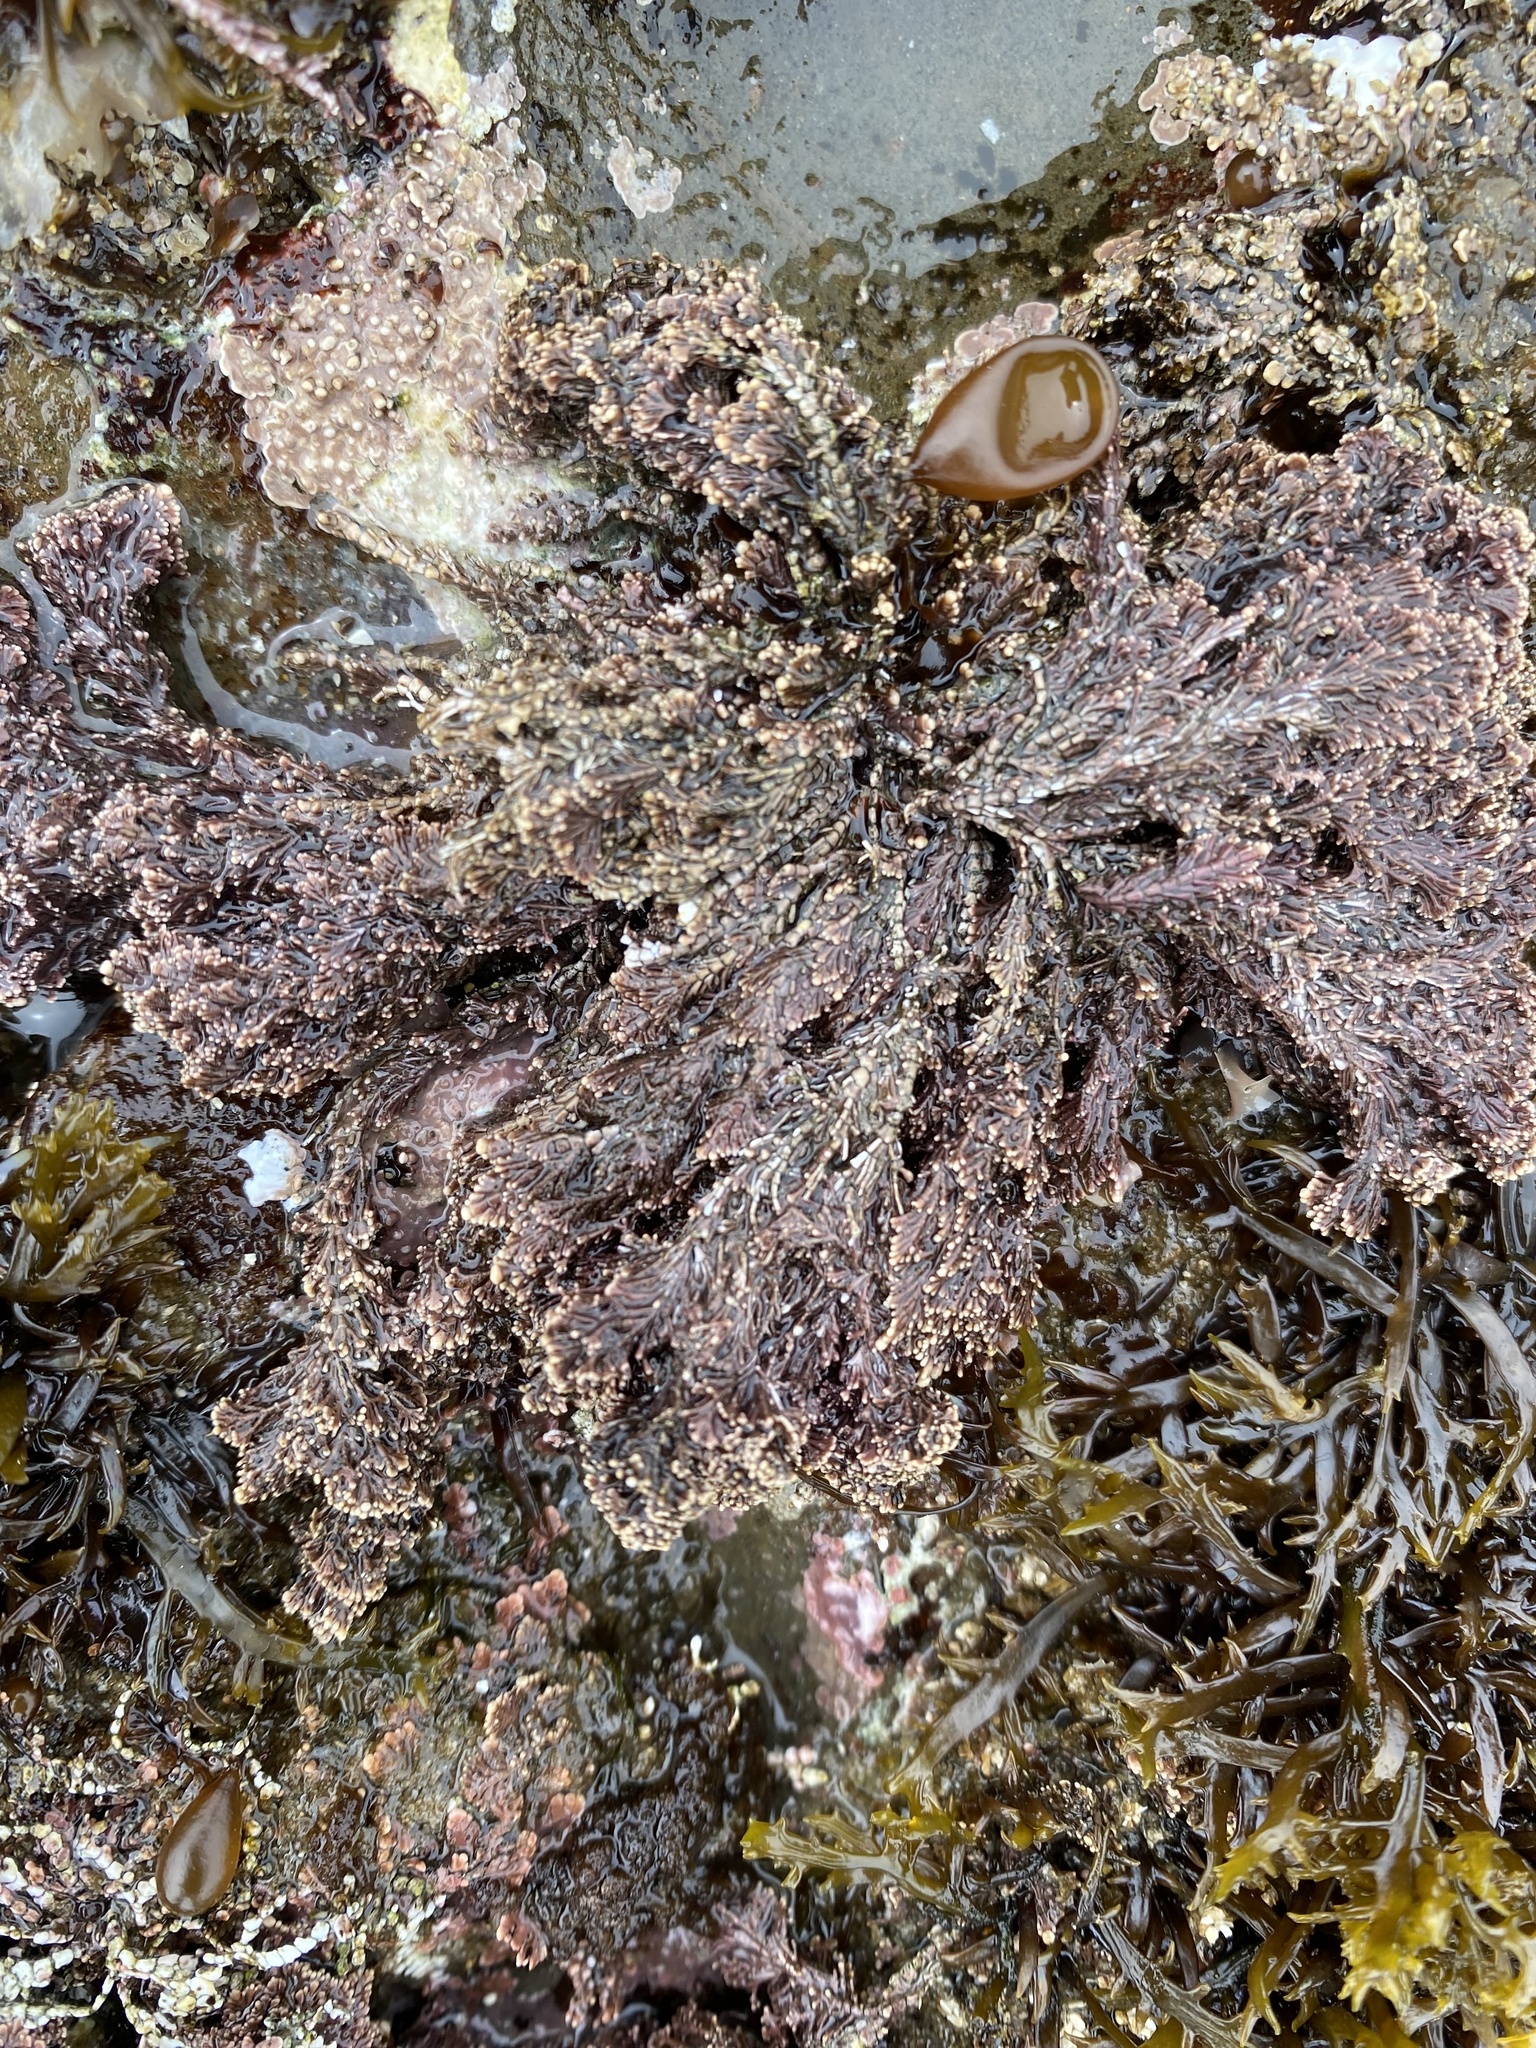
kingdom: Plantae
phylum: Rhodophyta
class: Florideophyceae
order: Corallinales
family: Corallinaceae
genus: Corallina
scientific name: Corallina vancouveriensis
